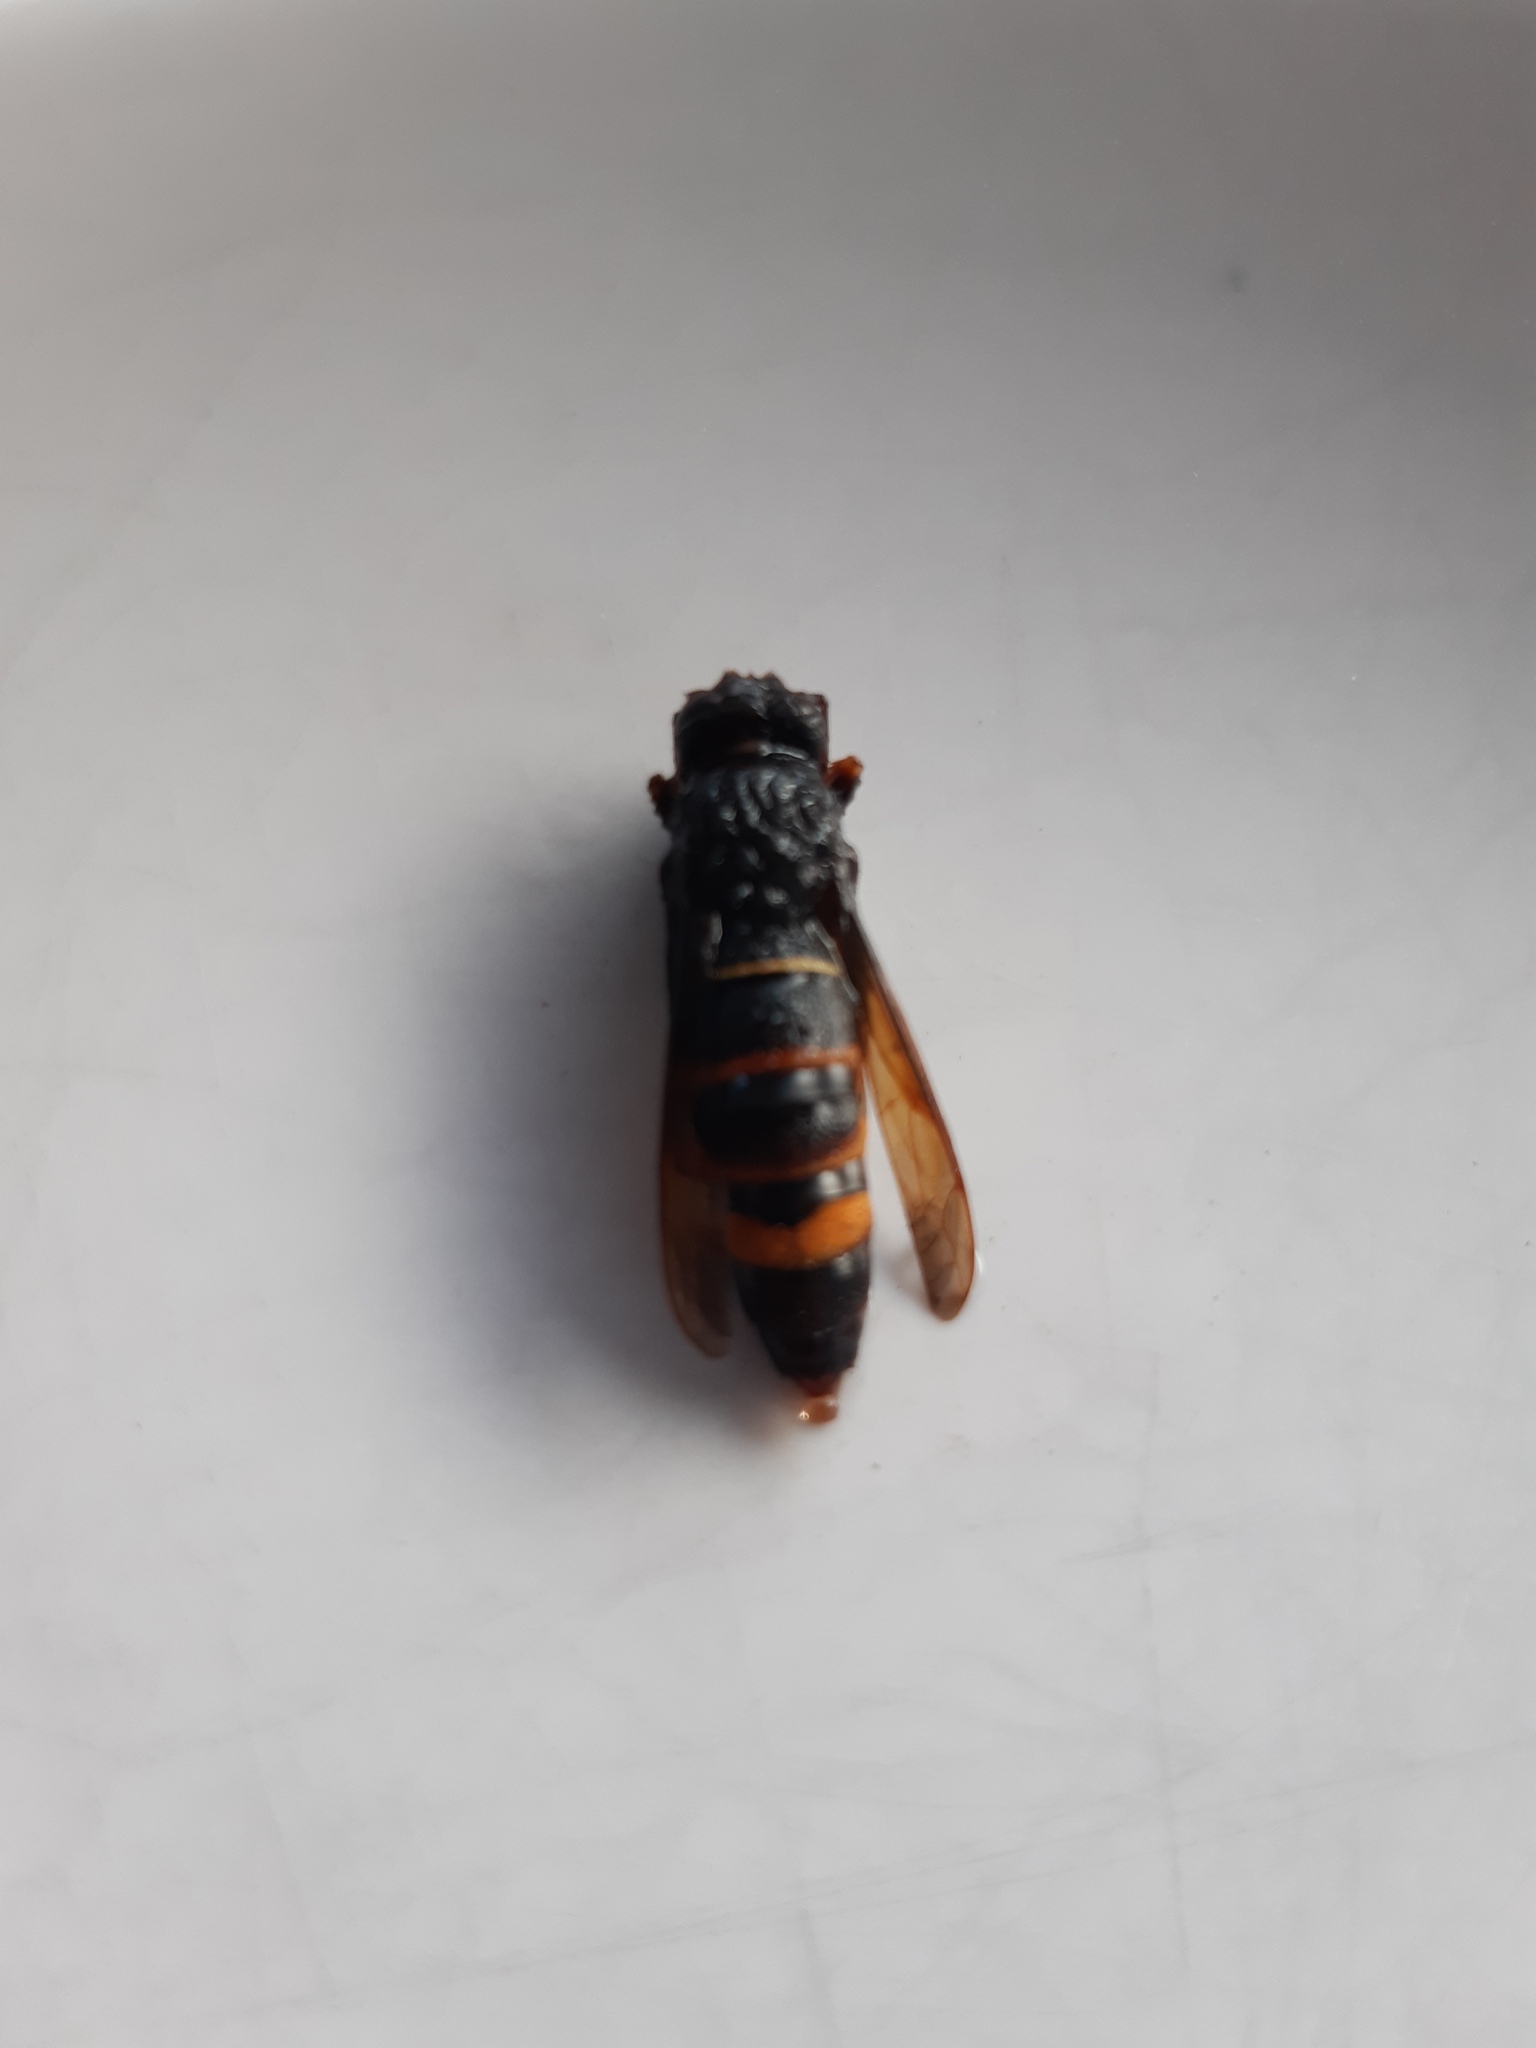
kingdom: Animalia
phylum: Arthropoda
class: Insecta
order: Hymenoptera
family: Vespidae
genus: Vespa
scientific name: Vespa velutina
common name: Asian hornet
